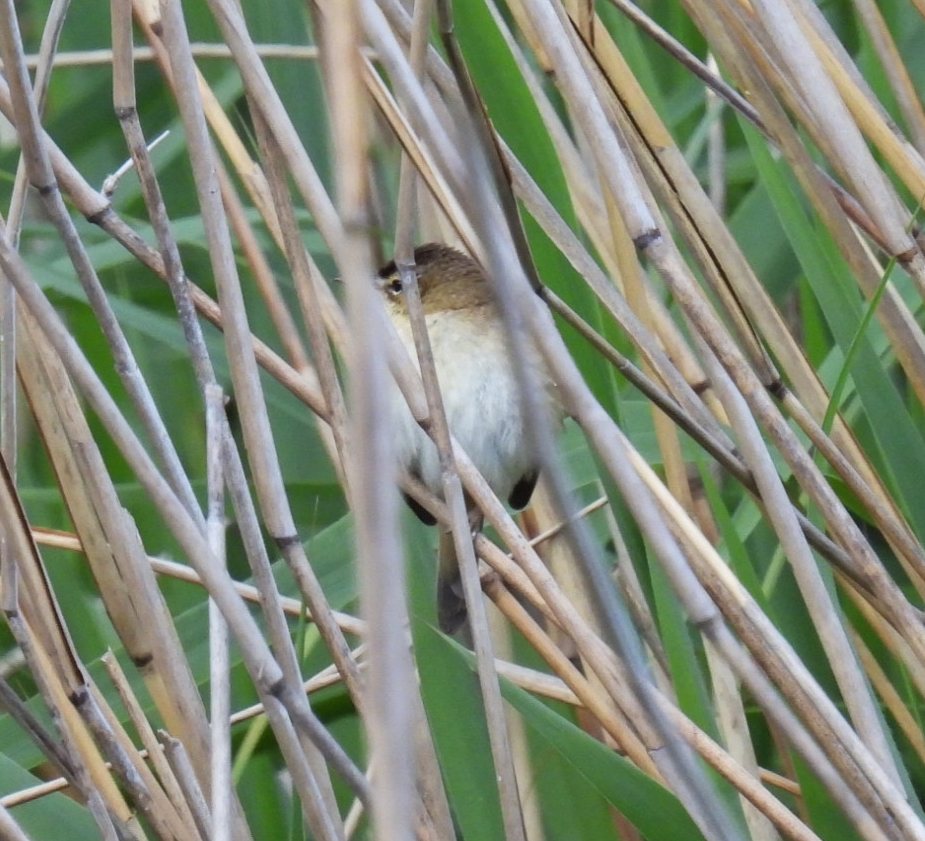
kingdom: Animalia
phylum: Chordata
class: Aves
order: Passeriformes
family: Acrocephalidae
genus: Acrocephalus
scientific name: Acrocephalus schoenobaenus
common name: Sedge warbler
